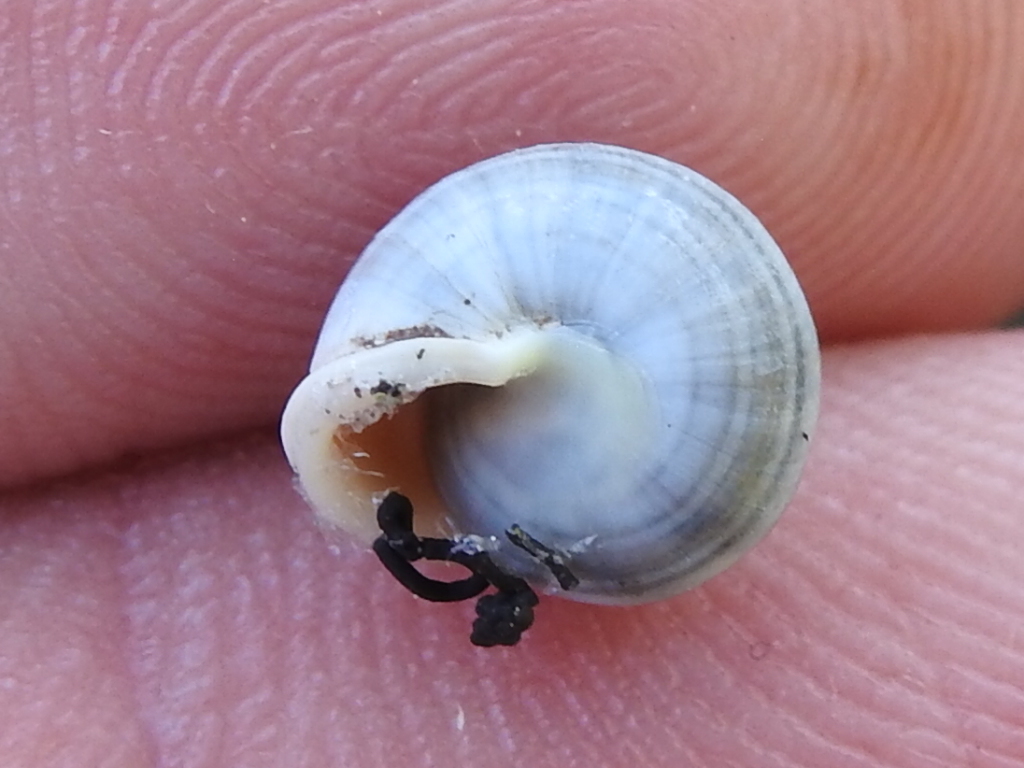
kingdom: Animalia
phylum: Mollusca
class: Gastropoda
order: Cycloneritida
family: Helicinidae
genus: Helicina
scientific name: Helicina orbiculata
